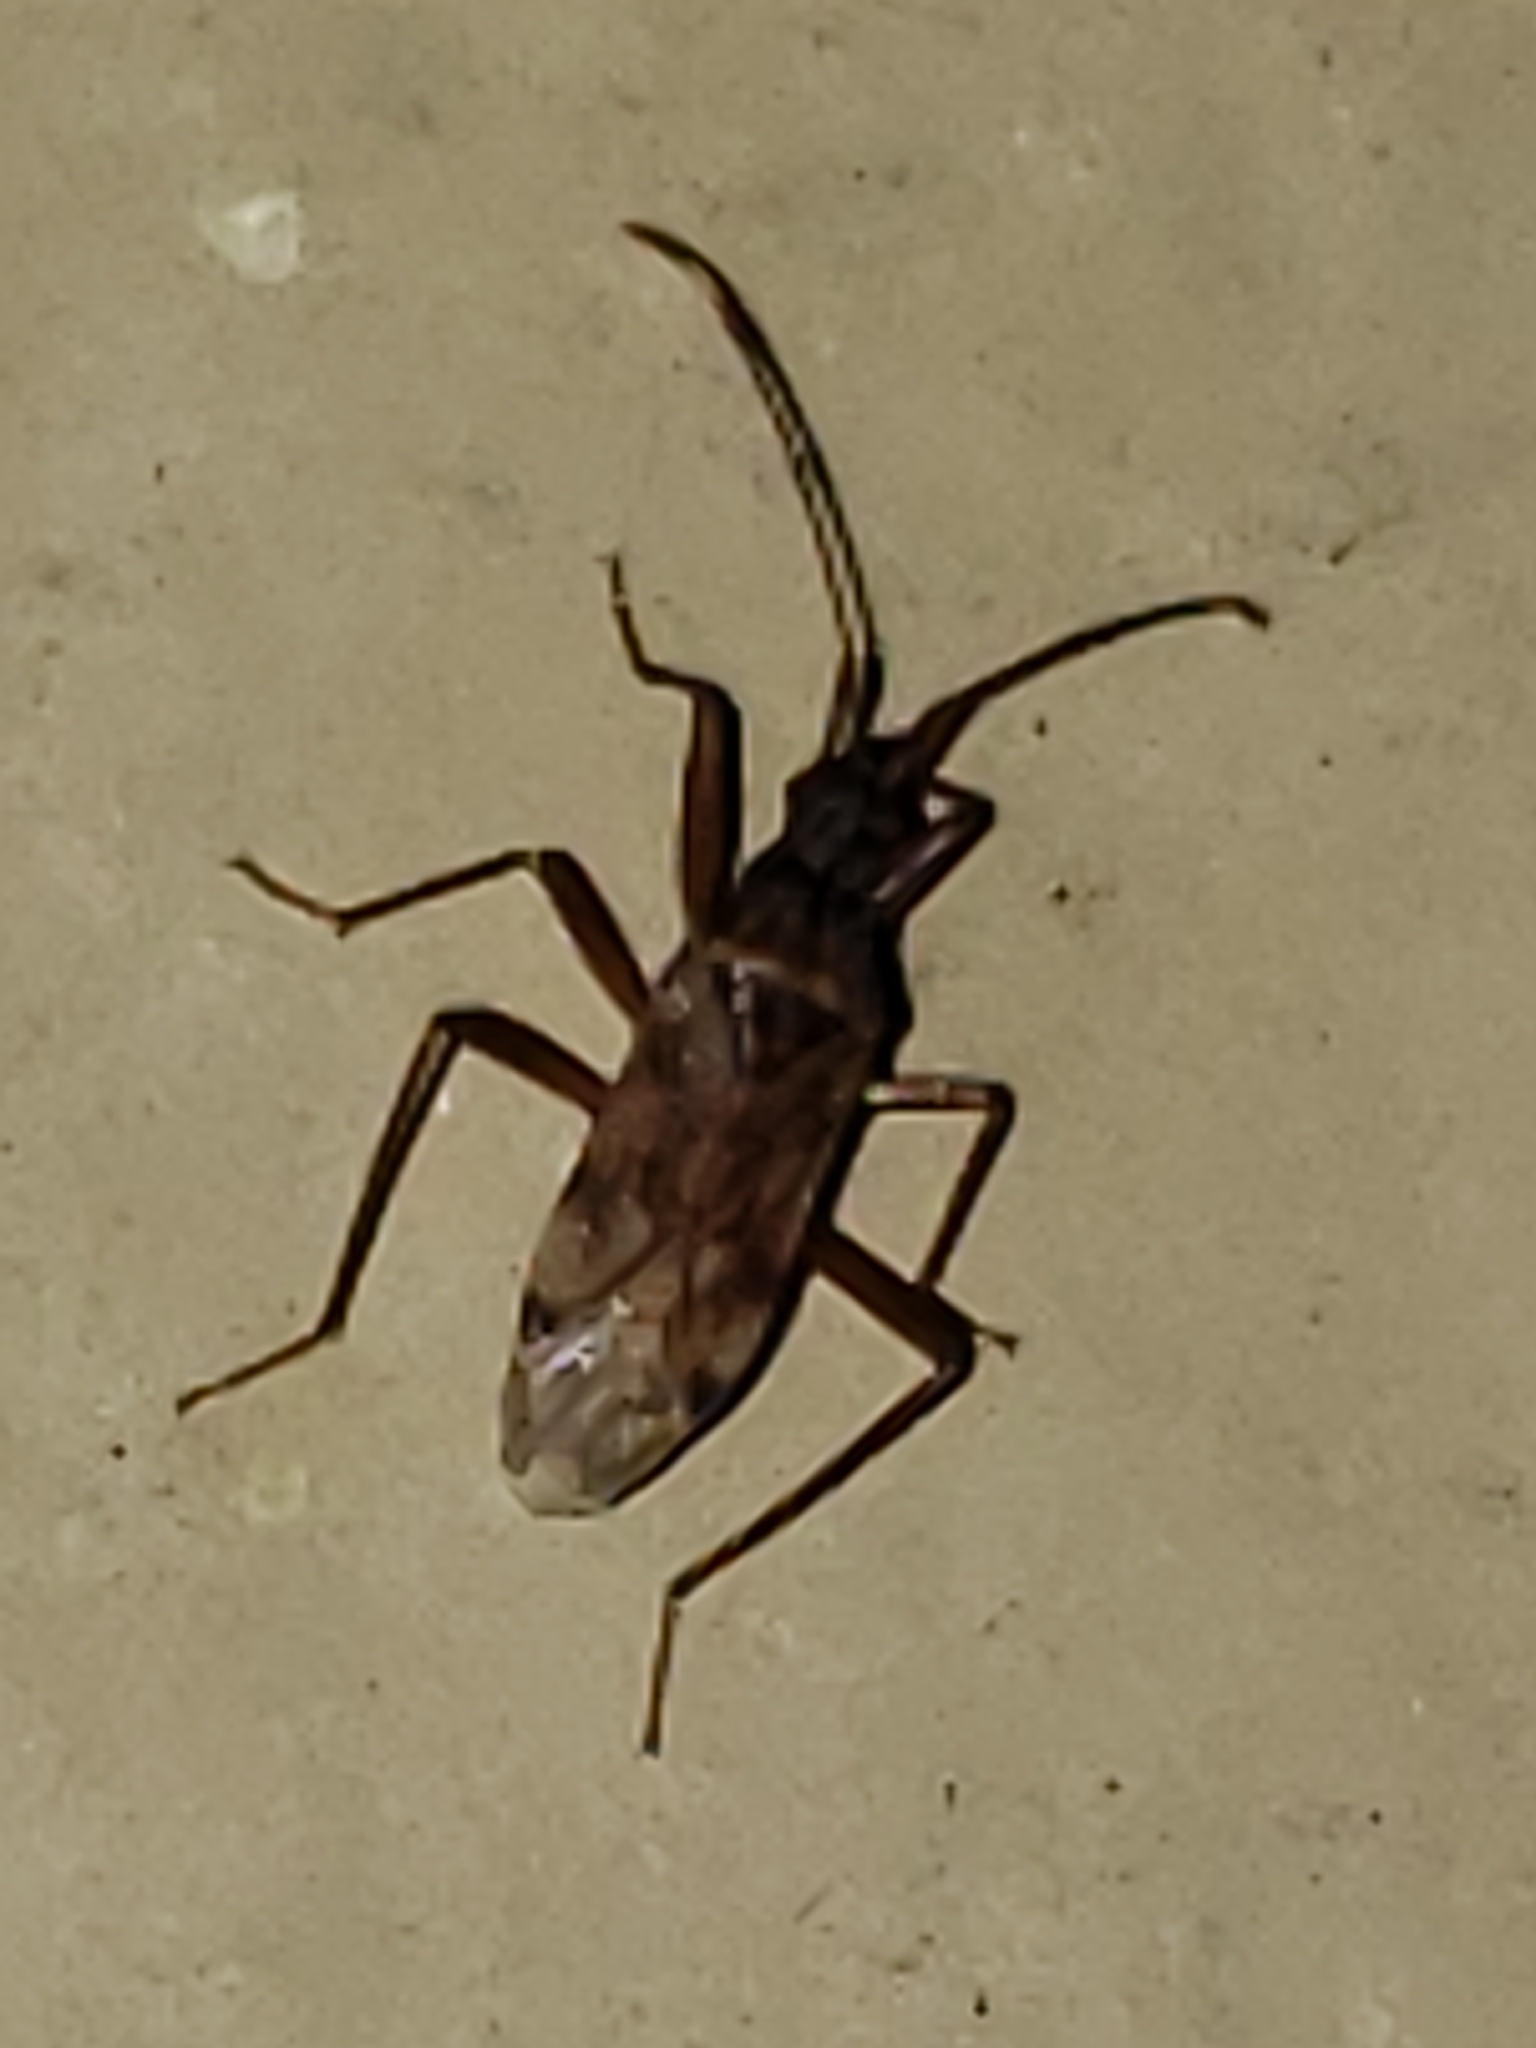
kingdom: Animalia
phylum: Arthropoda
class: Insecta
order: Hemiptera
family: Rhyparochromidae
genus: Ozophora
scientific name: Ozophora picturata
